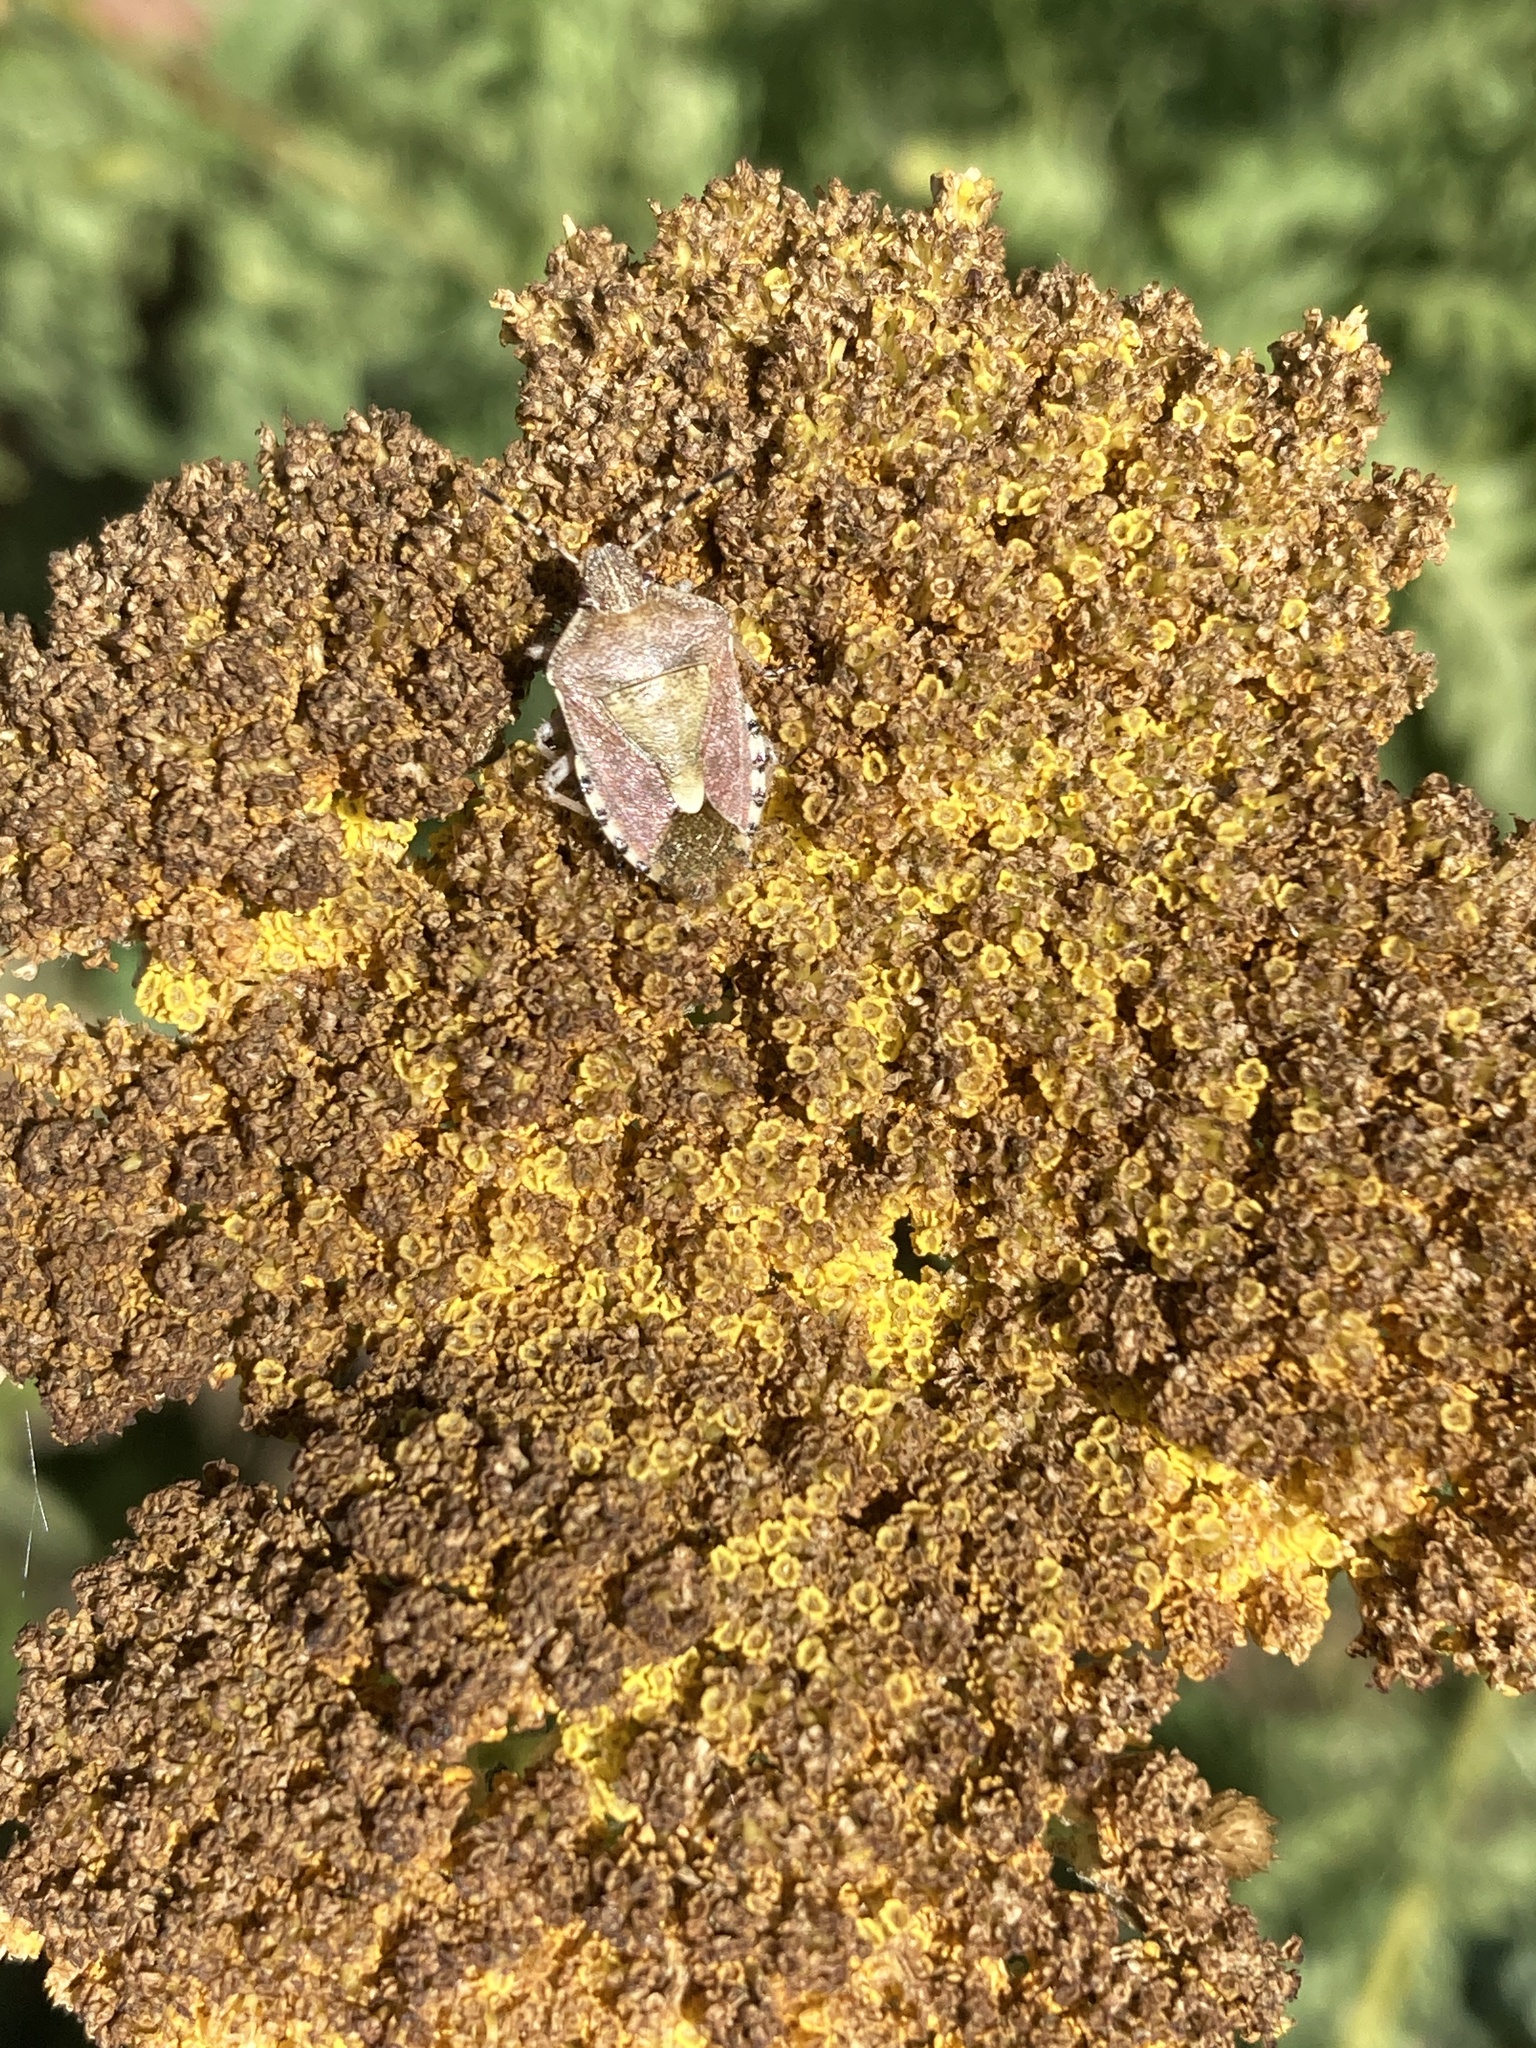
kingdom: Animalia
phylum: Arthropoda
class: Insecta
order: Hemiptera
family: Pentatomidae
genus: Dolycoris
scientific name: Dolycoris baccarum
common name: Sloe bug
